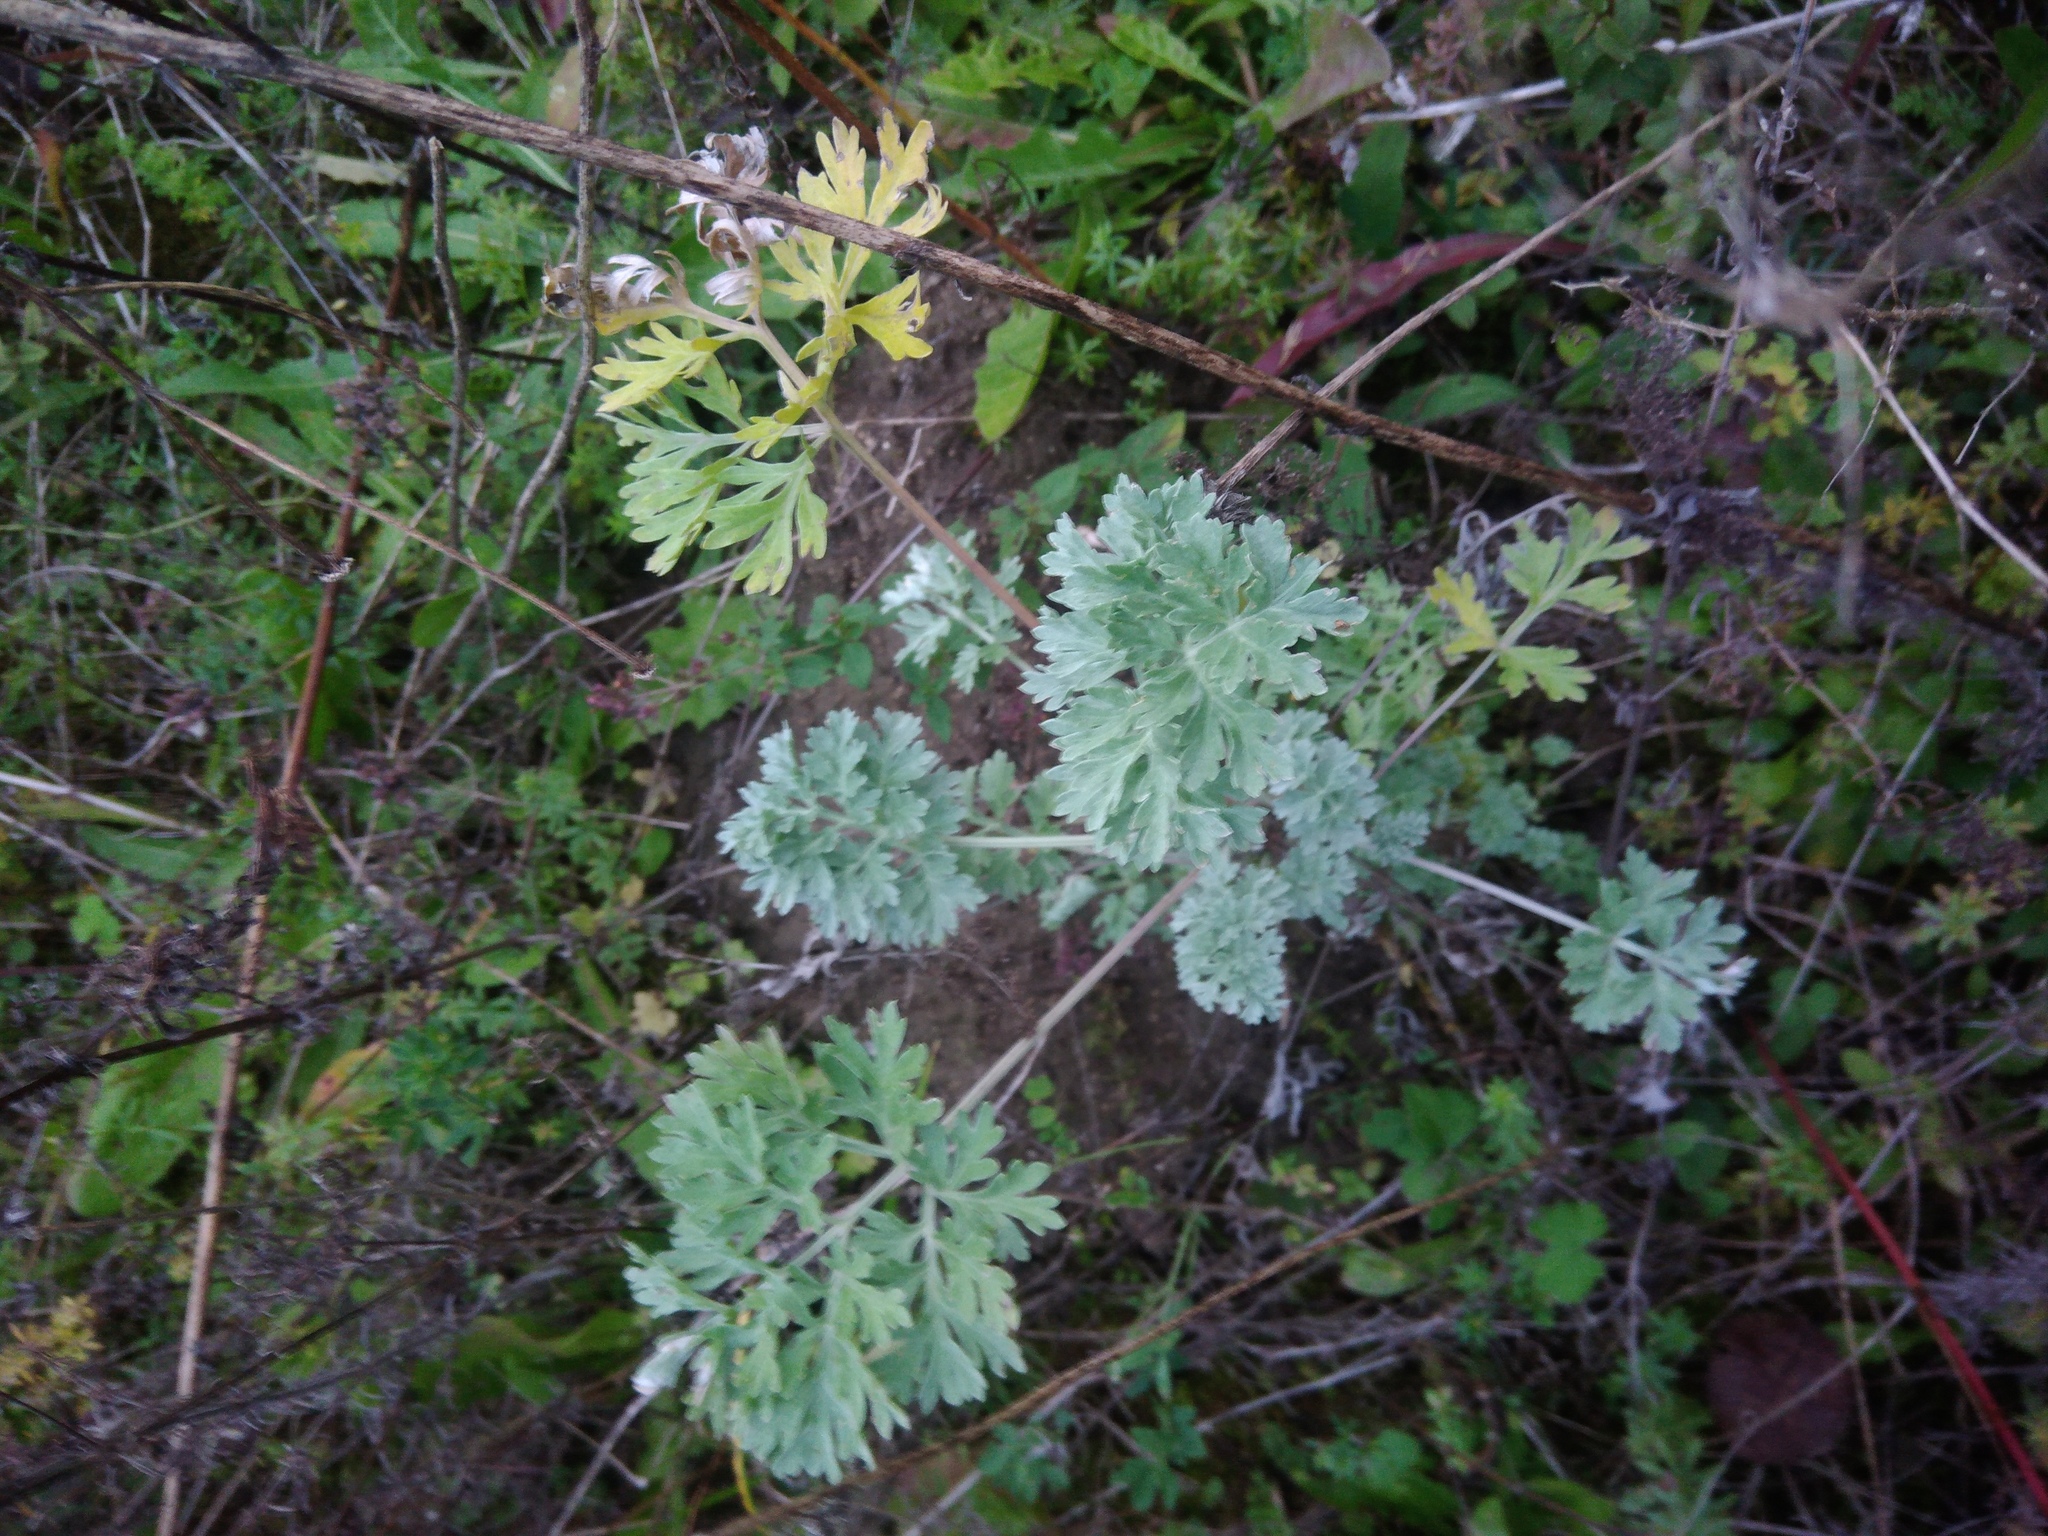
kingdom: Plantae
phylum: Tracheophyta
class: Magnoliopsida
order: Asterales
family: Asteraceae
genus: Artemisia
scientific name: Artemisia absinthium
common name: Wormwood
